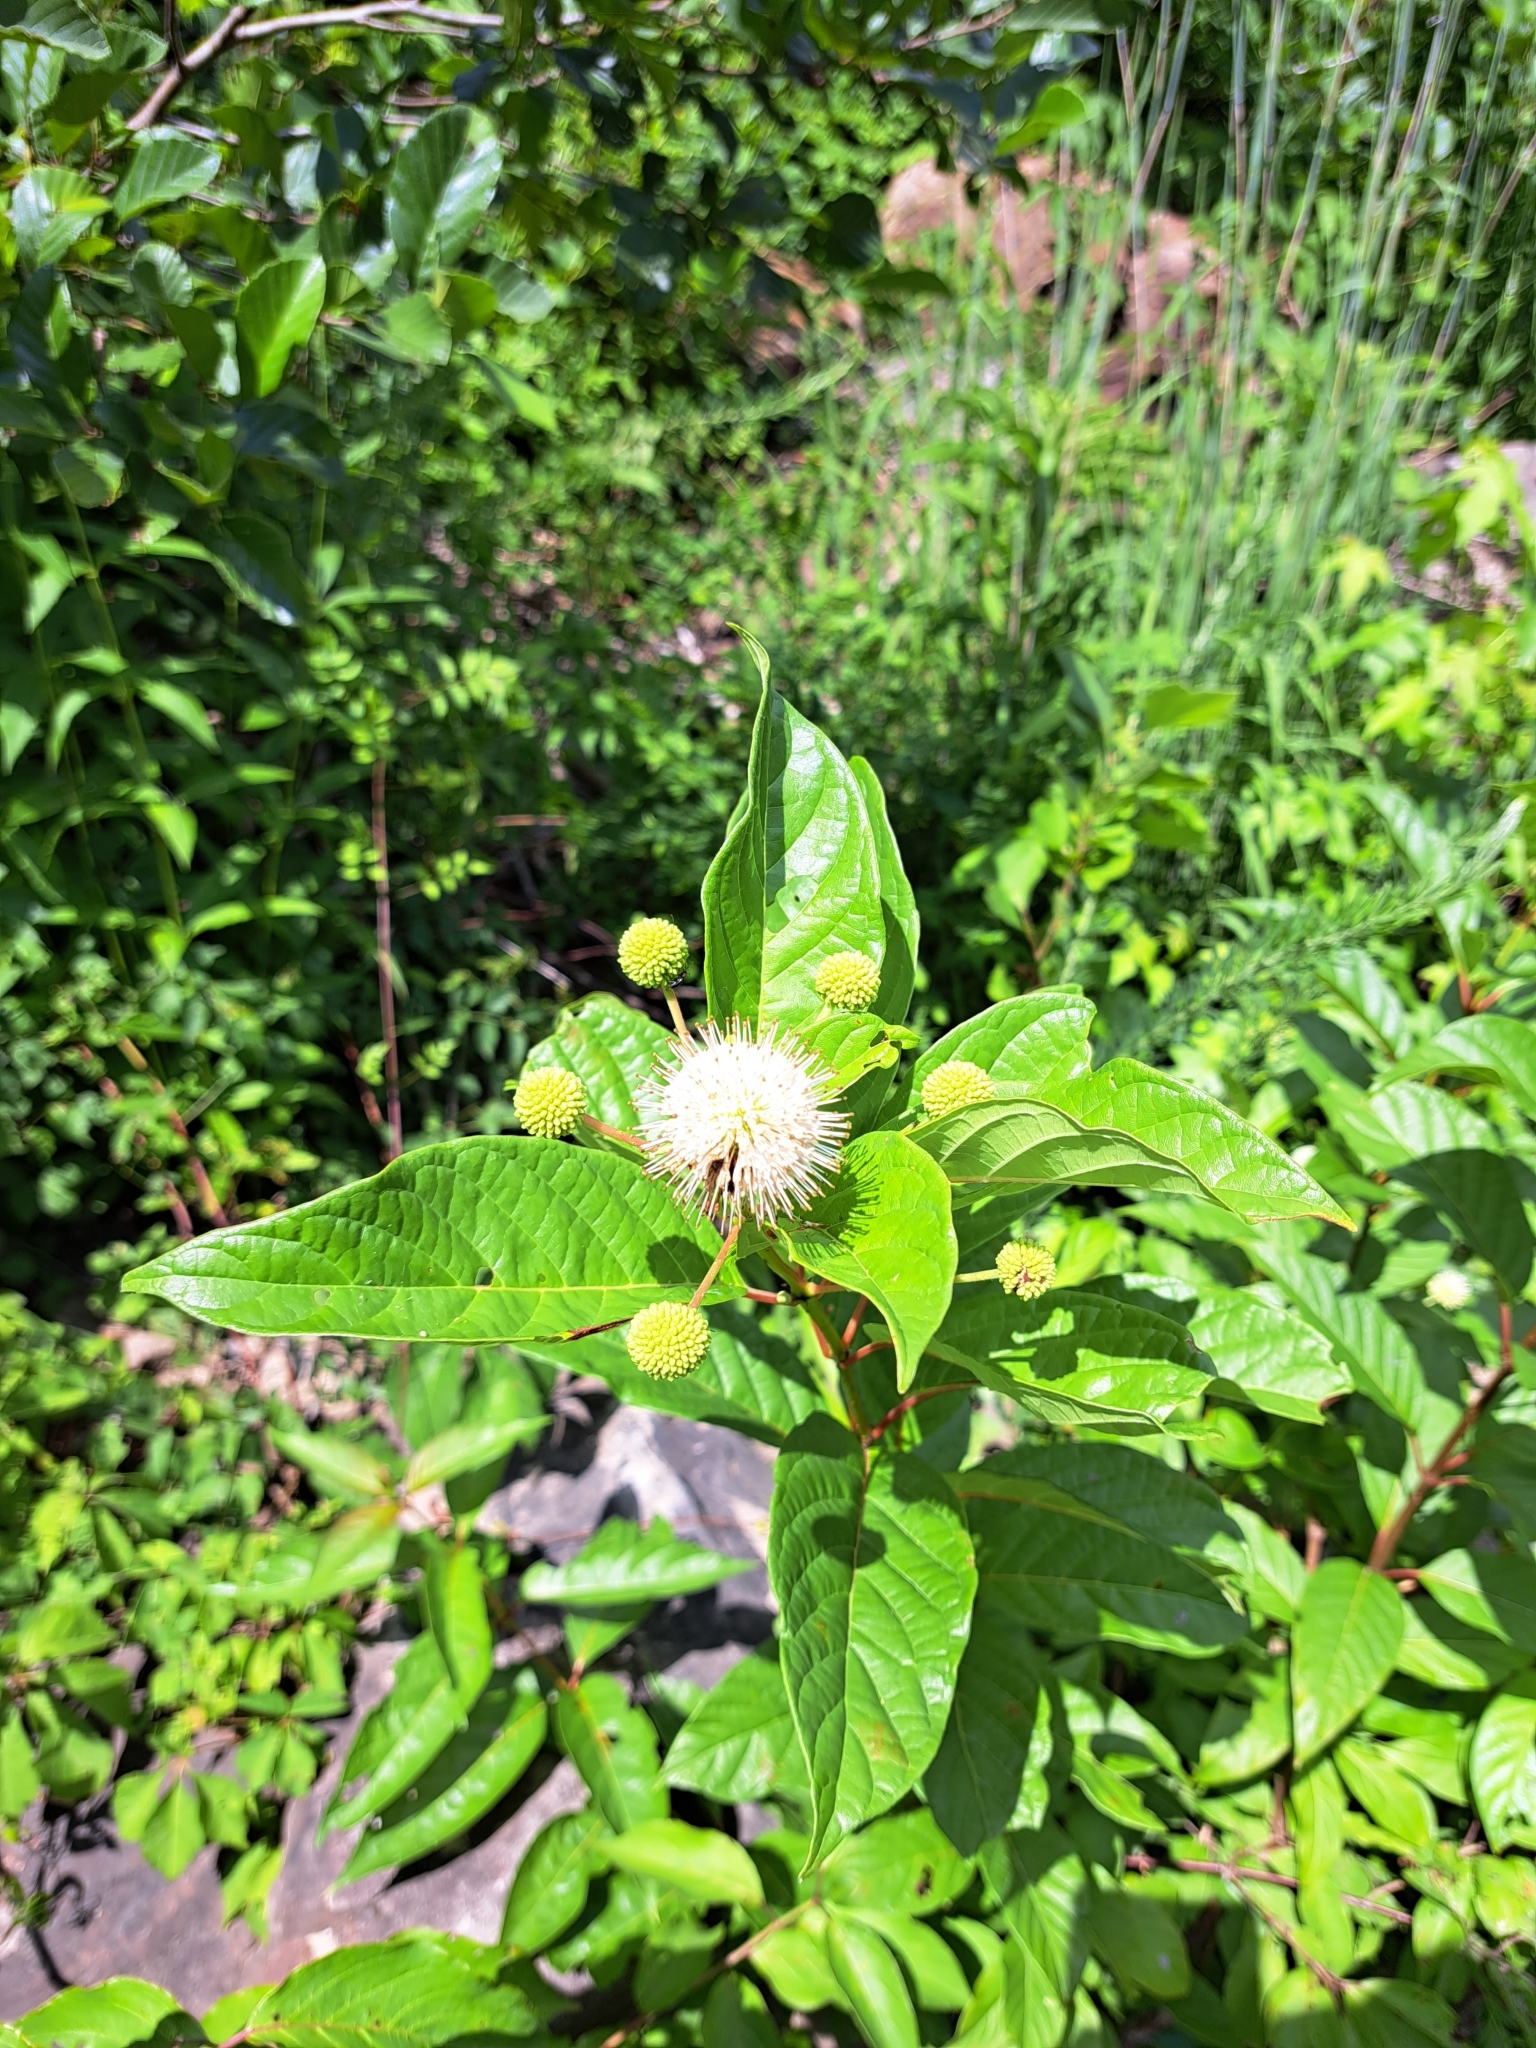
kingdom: Plantae
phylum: Tracheophyta
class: Magnoliopsida
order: Gentianales
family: Rubiaceae
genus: Cephalanthus
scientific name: Cephalanthus occidentalis
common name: Button-willow
